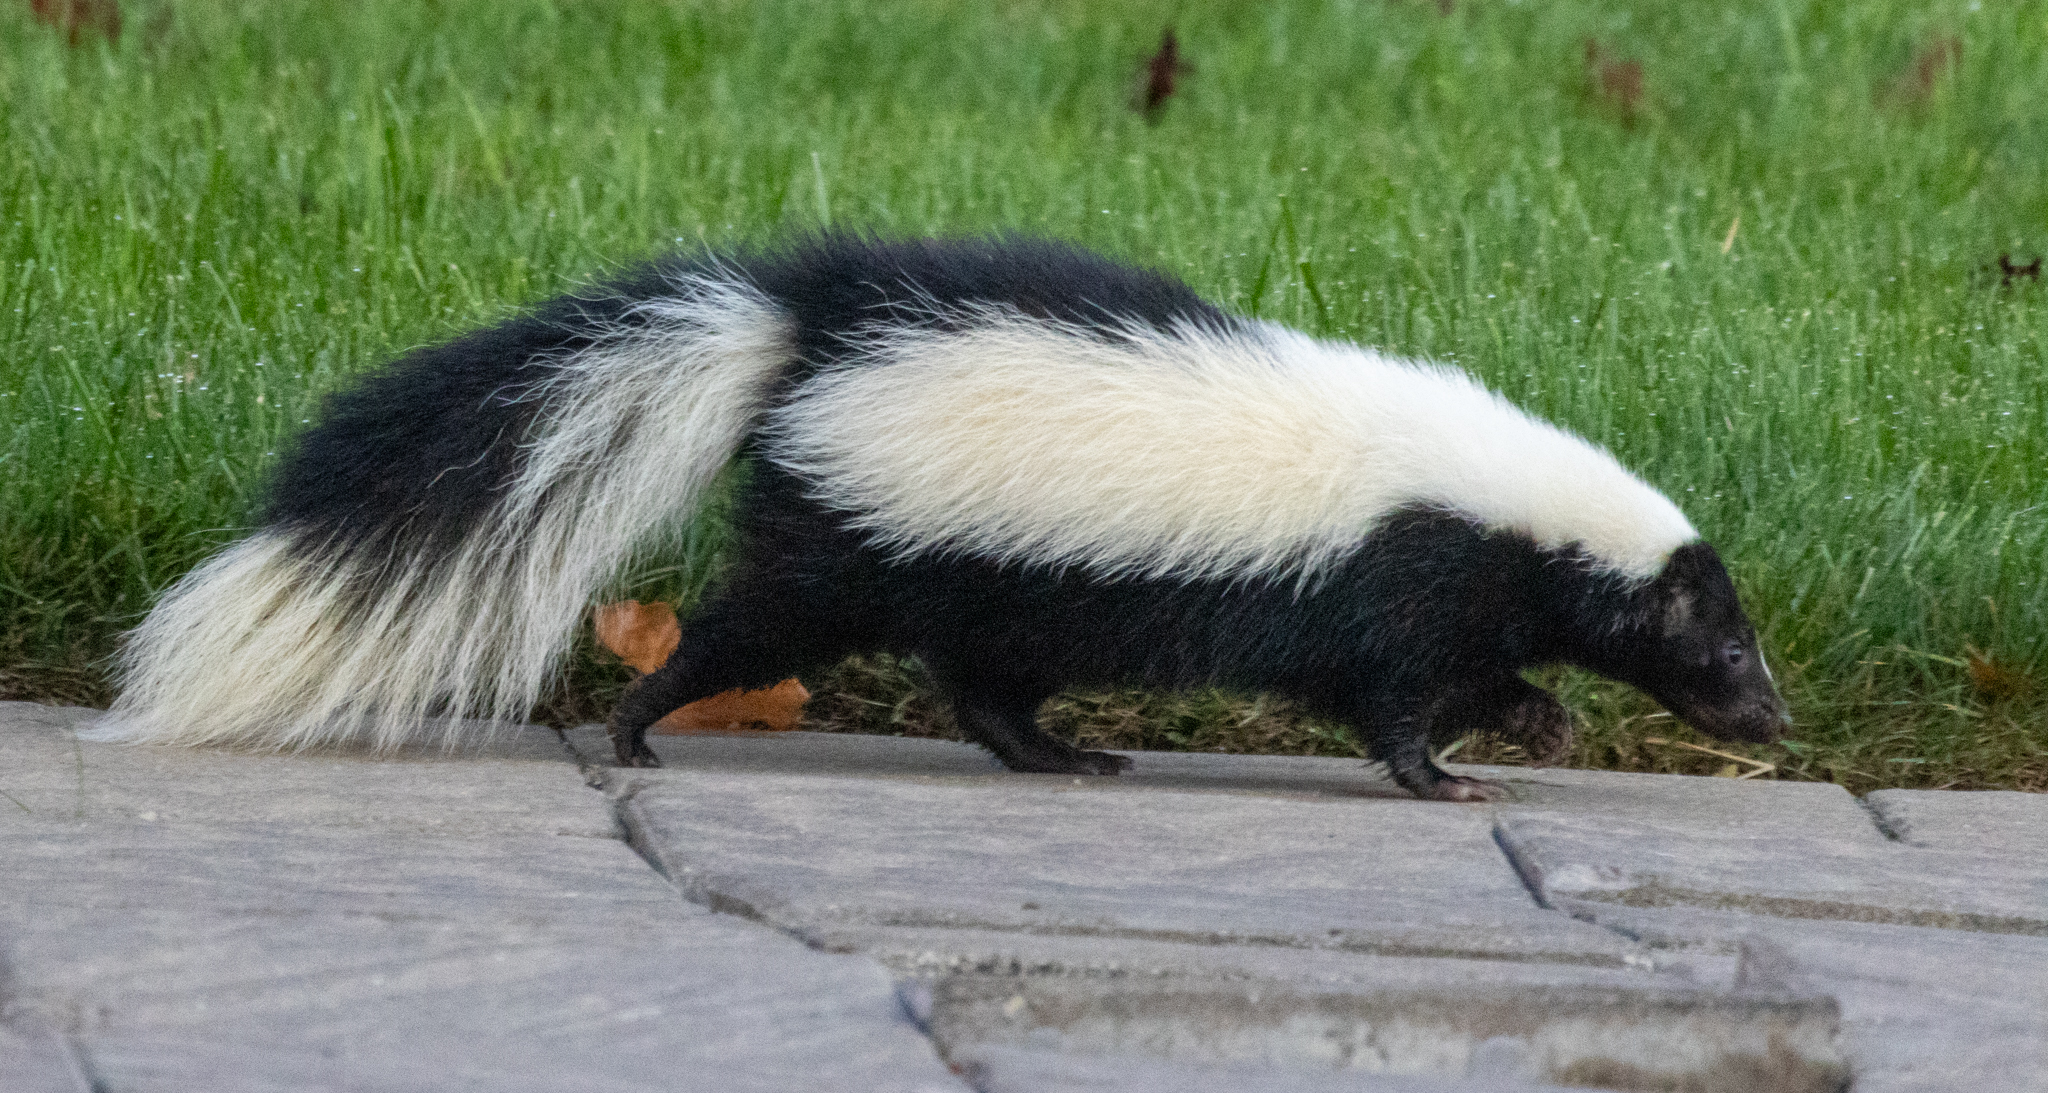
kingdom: Animalia
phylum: Chordata
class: Mammalia
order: Carnivora
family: Mephitidae
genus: Mephitis
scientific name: Mephitis mephitis
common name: Striped skunk
